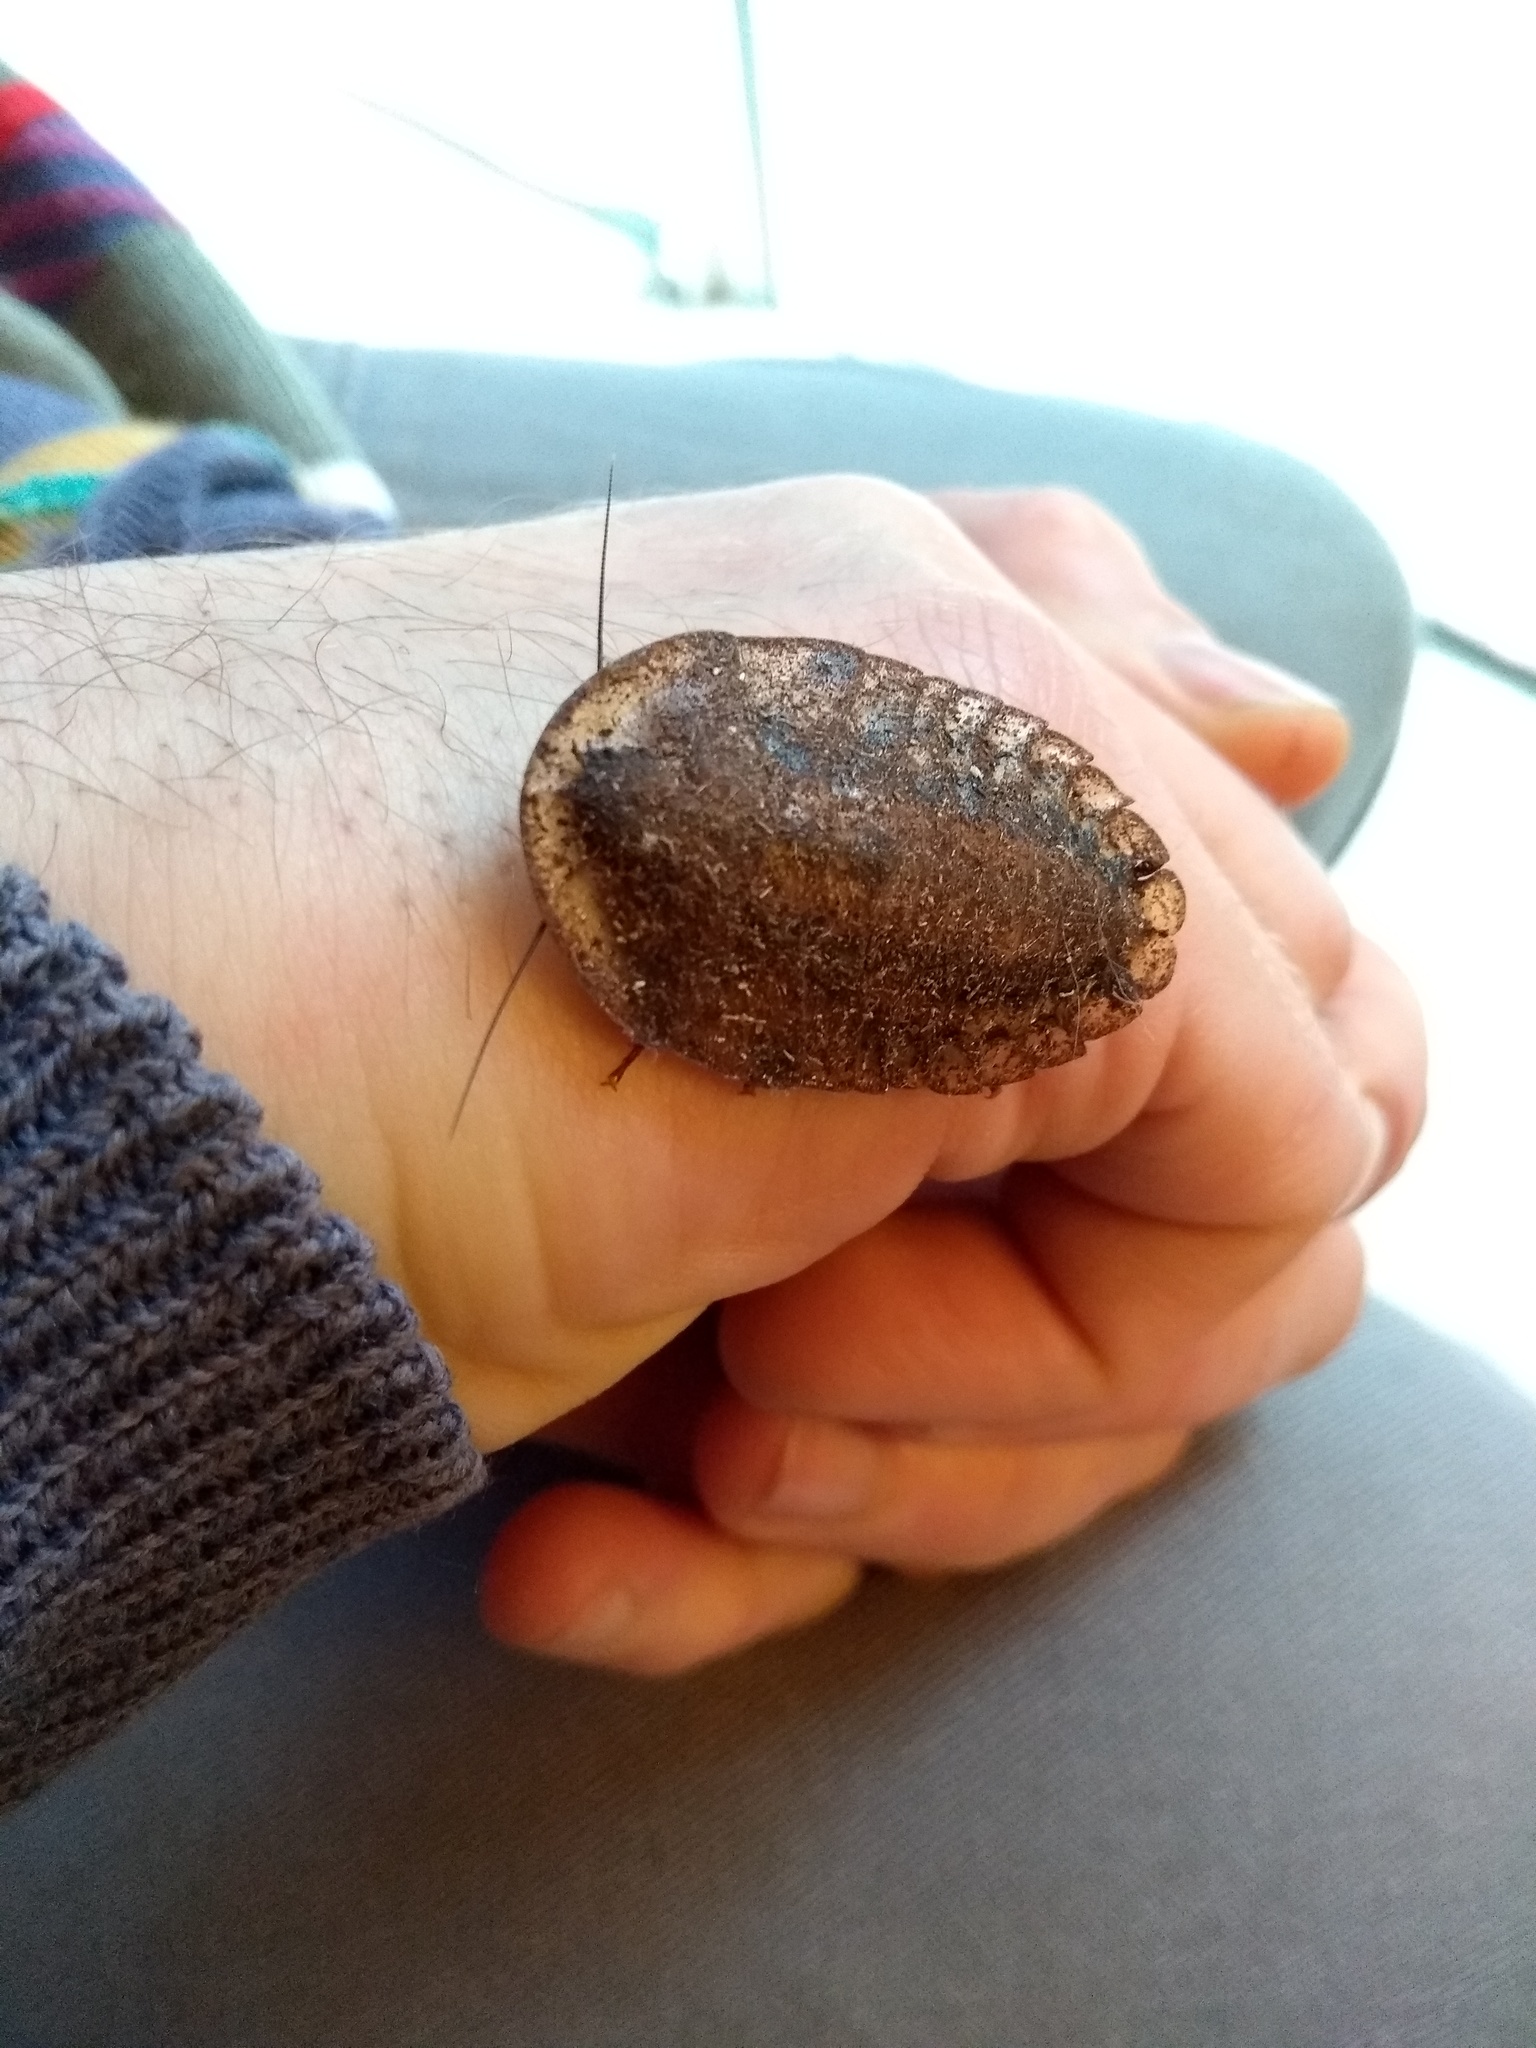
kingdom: Animalia
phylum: Arthropoda
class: Insecta
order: Blattodea
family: Blaberidae
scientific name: Blaberidae
